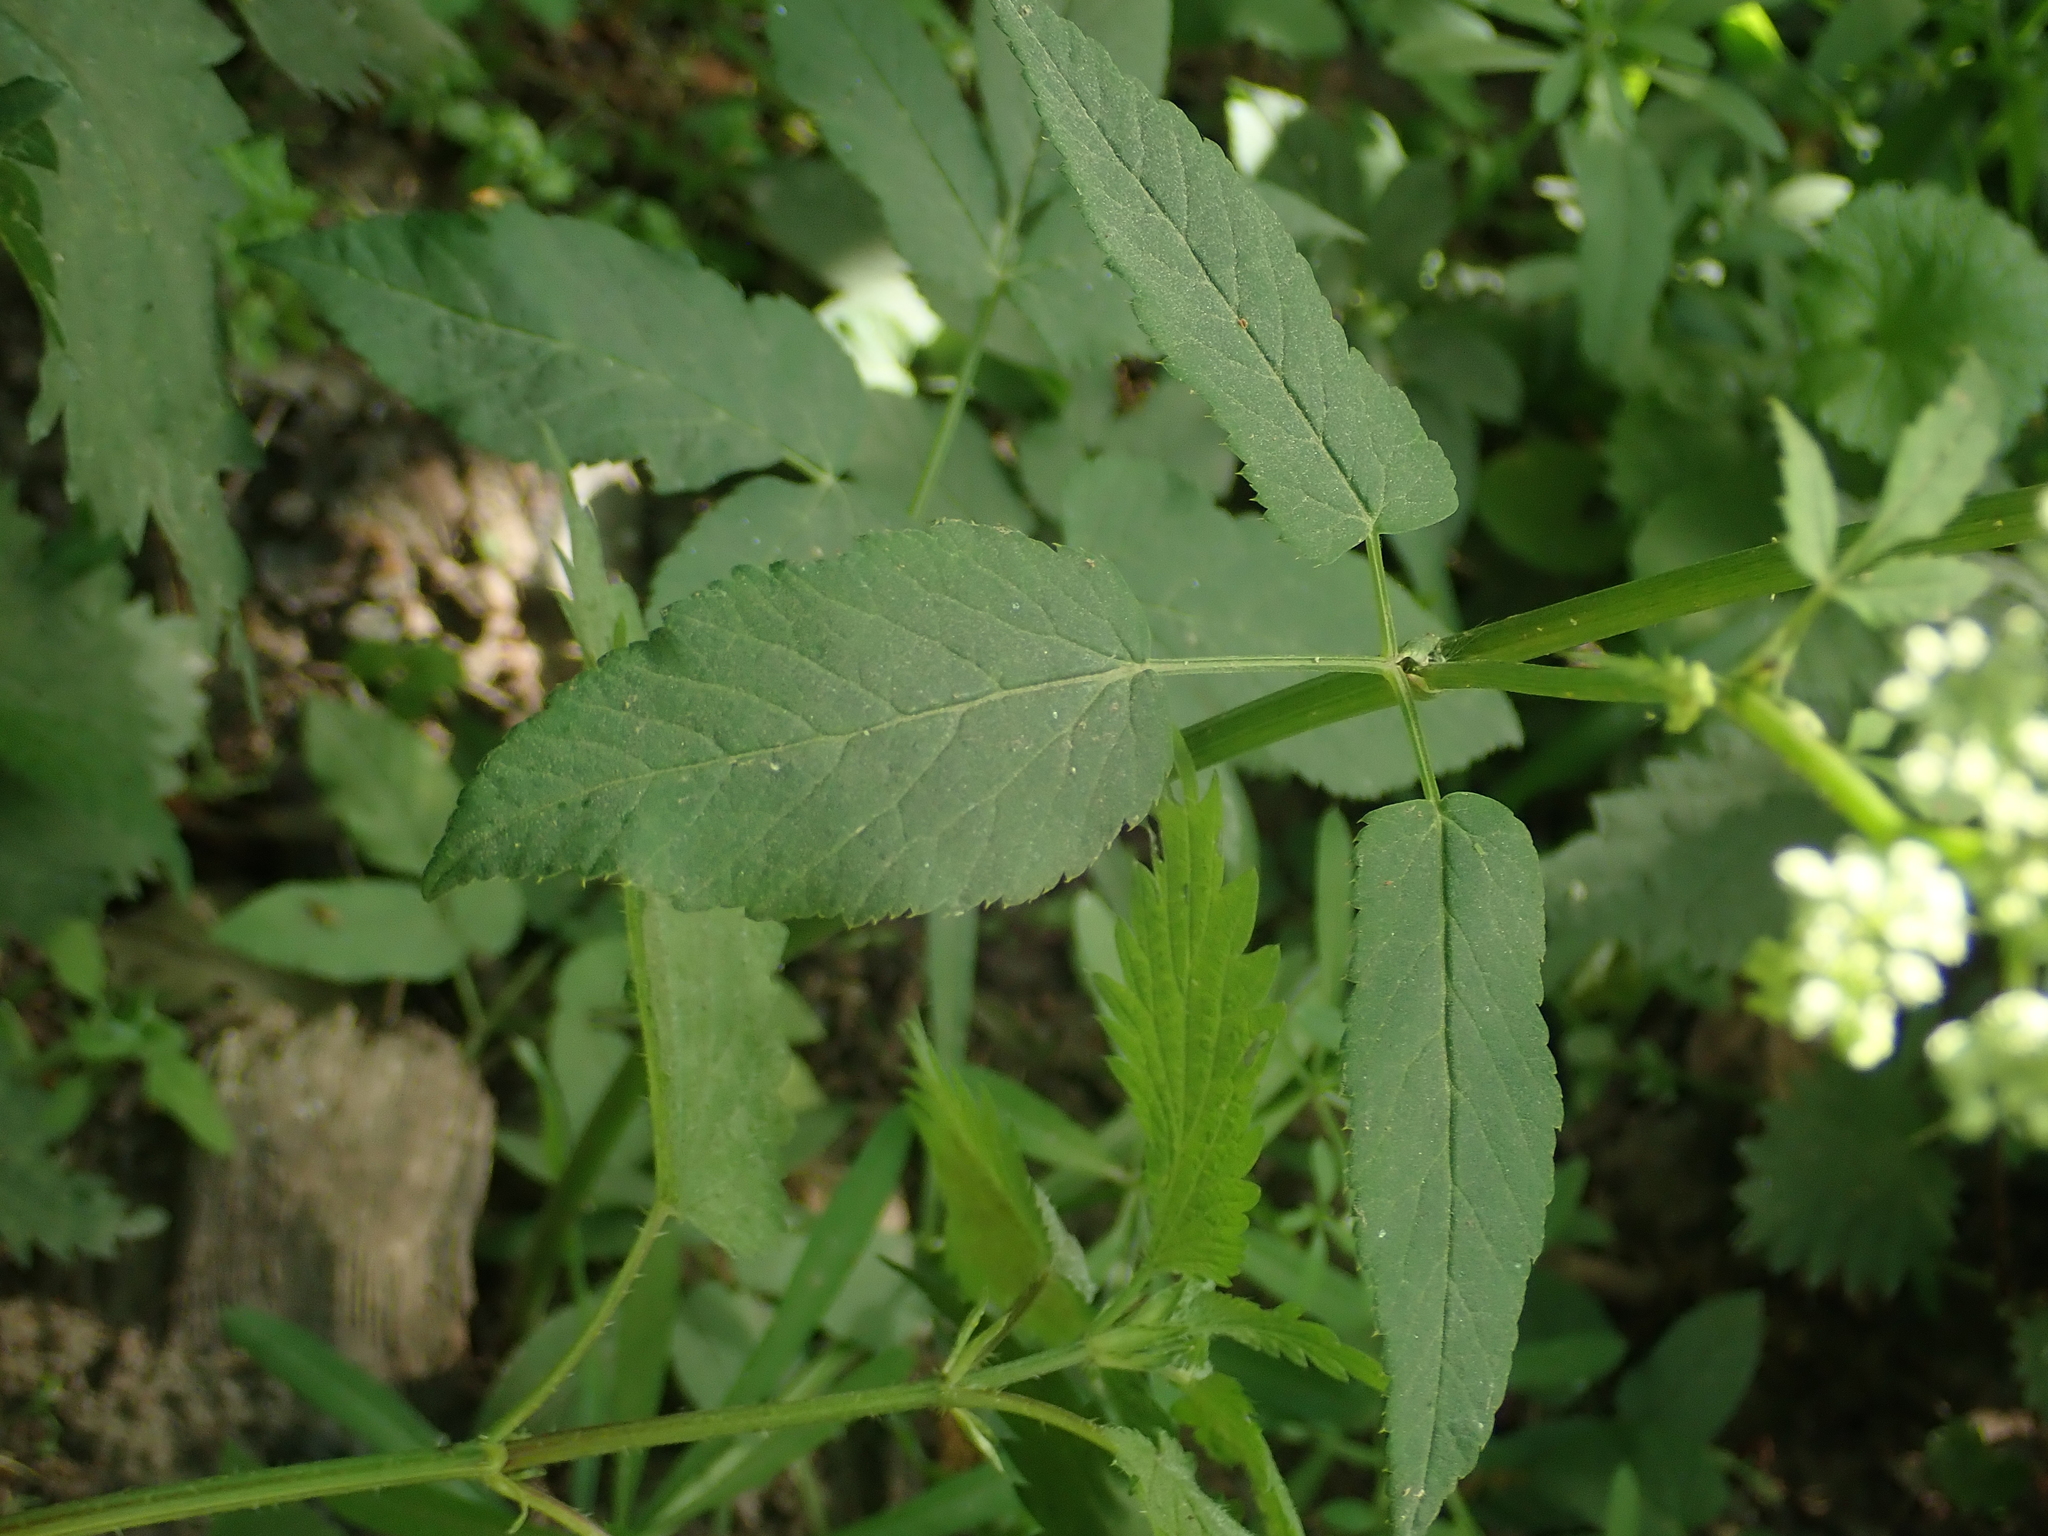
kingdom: Plantae
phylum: Tracheophyta
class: Magnoliopsida
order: Apiales
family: Apiaceae
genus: Aegopodium
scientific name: Aegopodium podagraria
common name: Ground-elder
